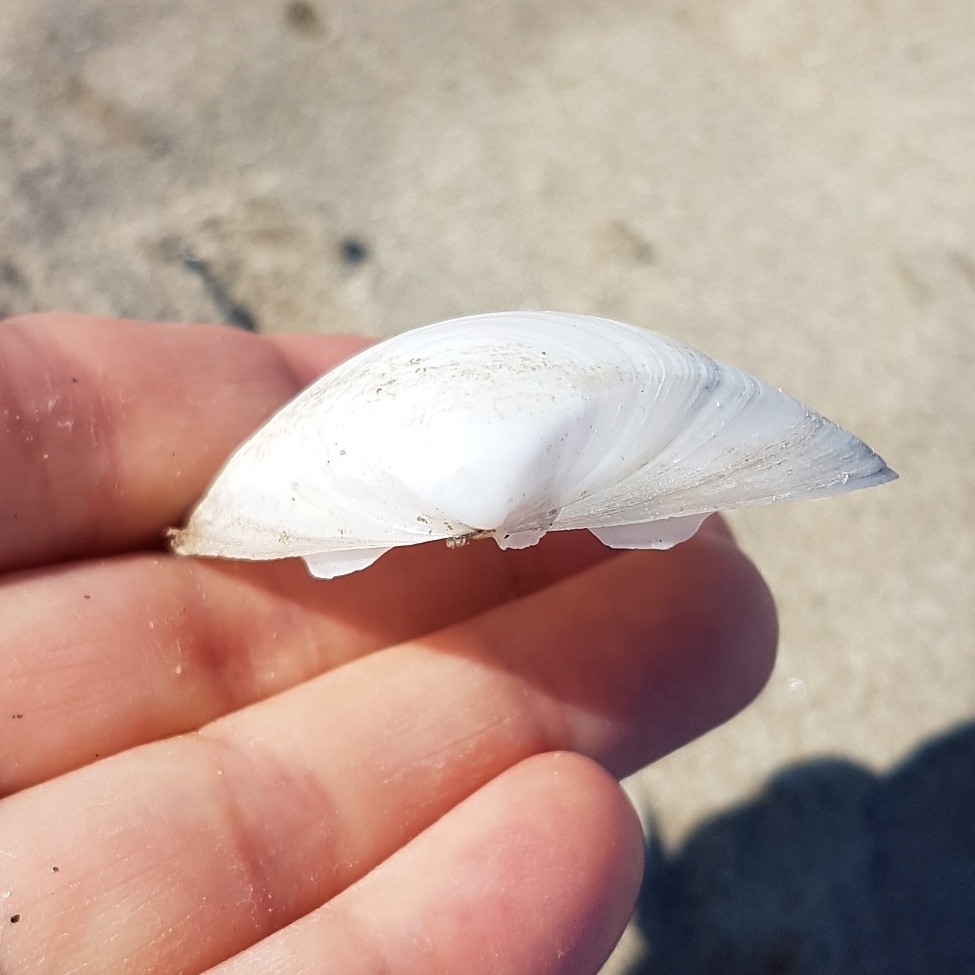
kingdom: Animalia
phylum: Mollusca
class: Bivalvia
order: Venerida
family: Mactridae
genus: Mactra
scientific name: Mactra stultorum
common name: Rayed trough shell
